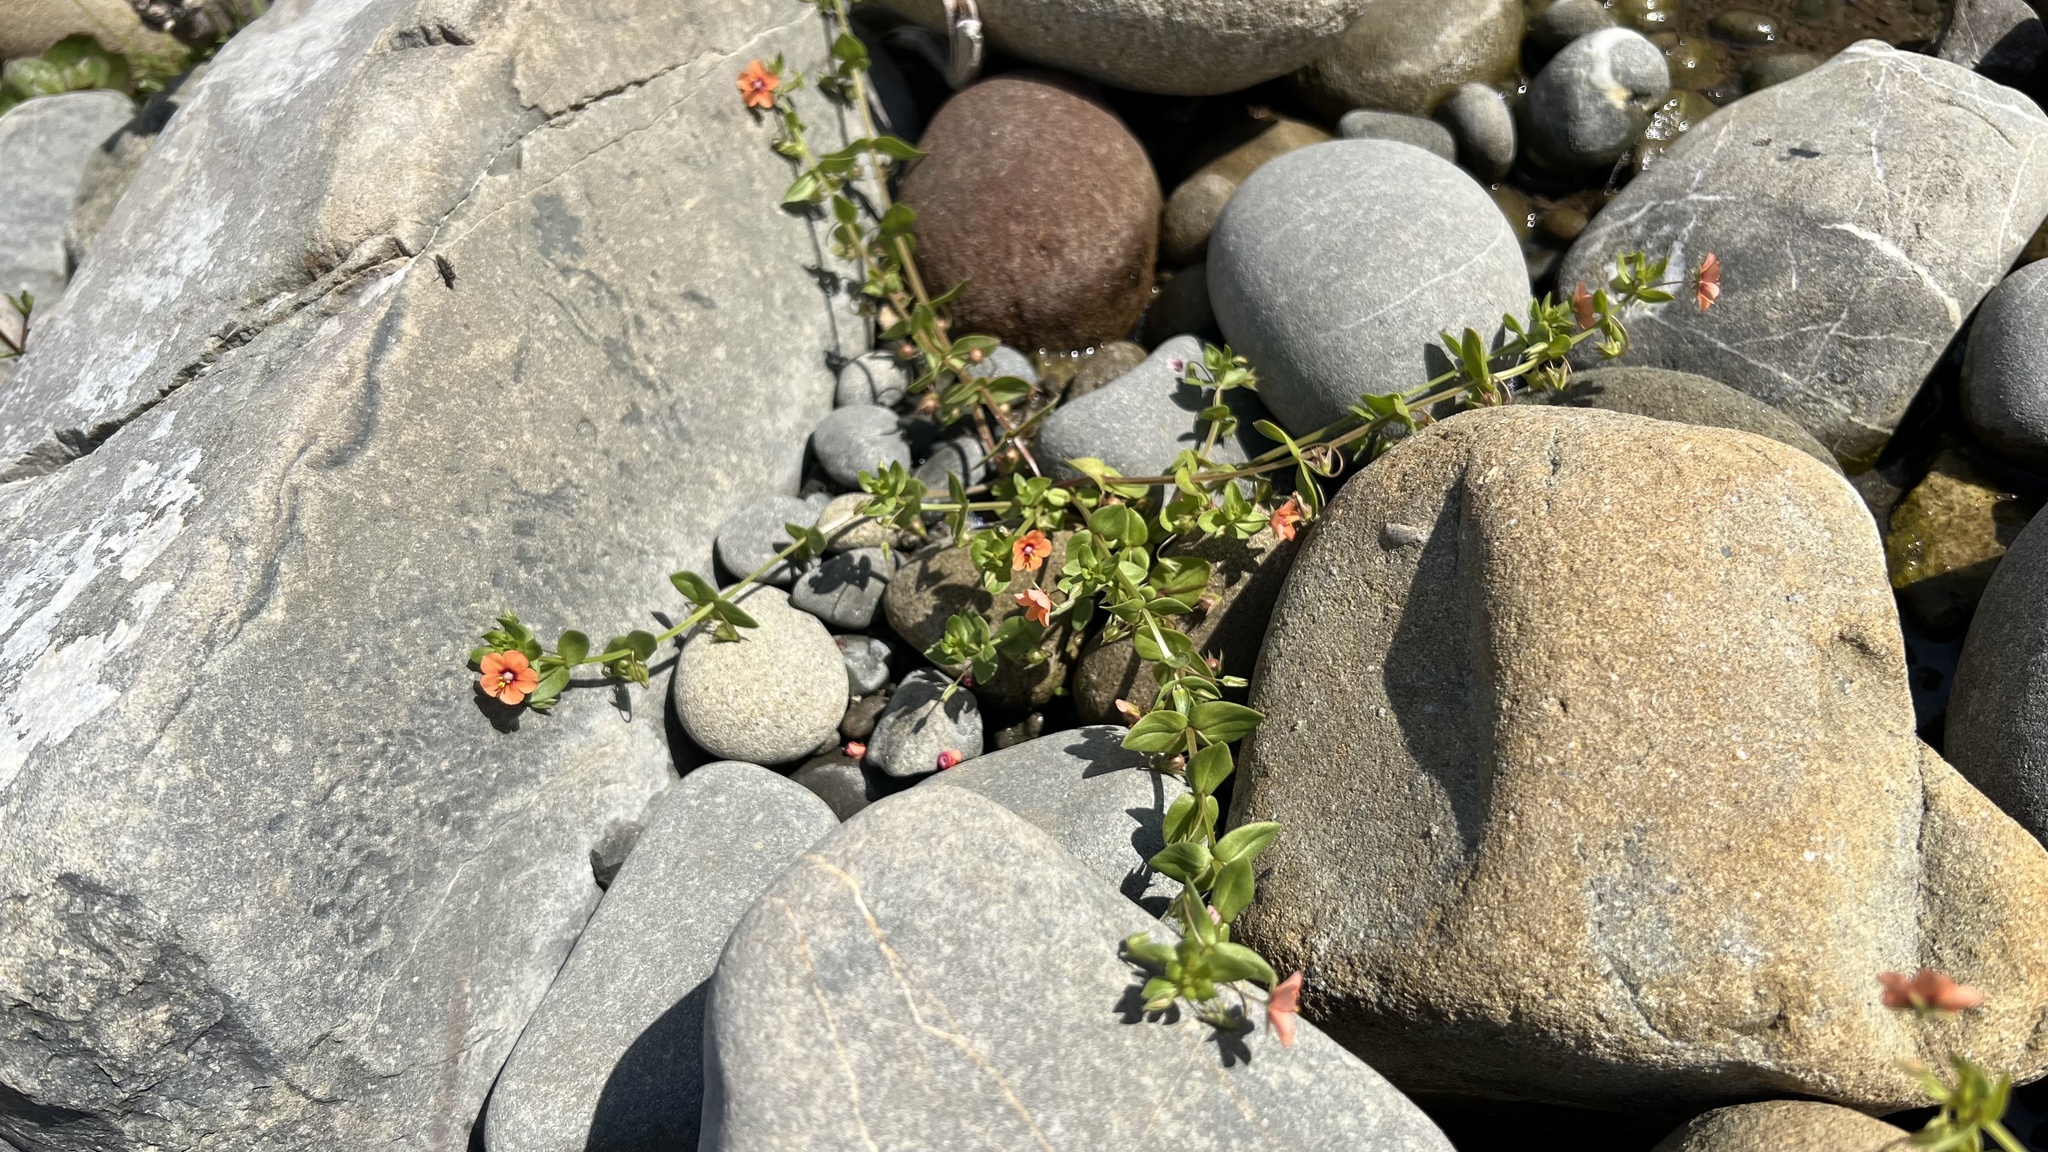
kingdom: Plantae
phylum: Tracheophyta
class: Magnoliopsida
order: Ericales
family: Primulaceae
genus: Lysimachia
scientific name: Lysimachia arvensis
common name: Scarlet pimpernel
